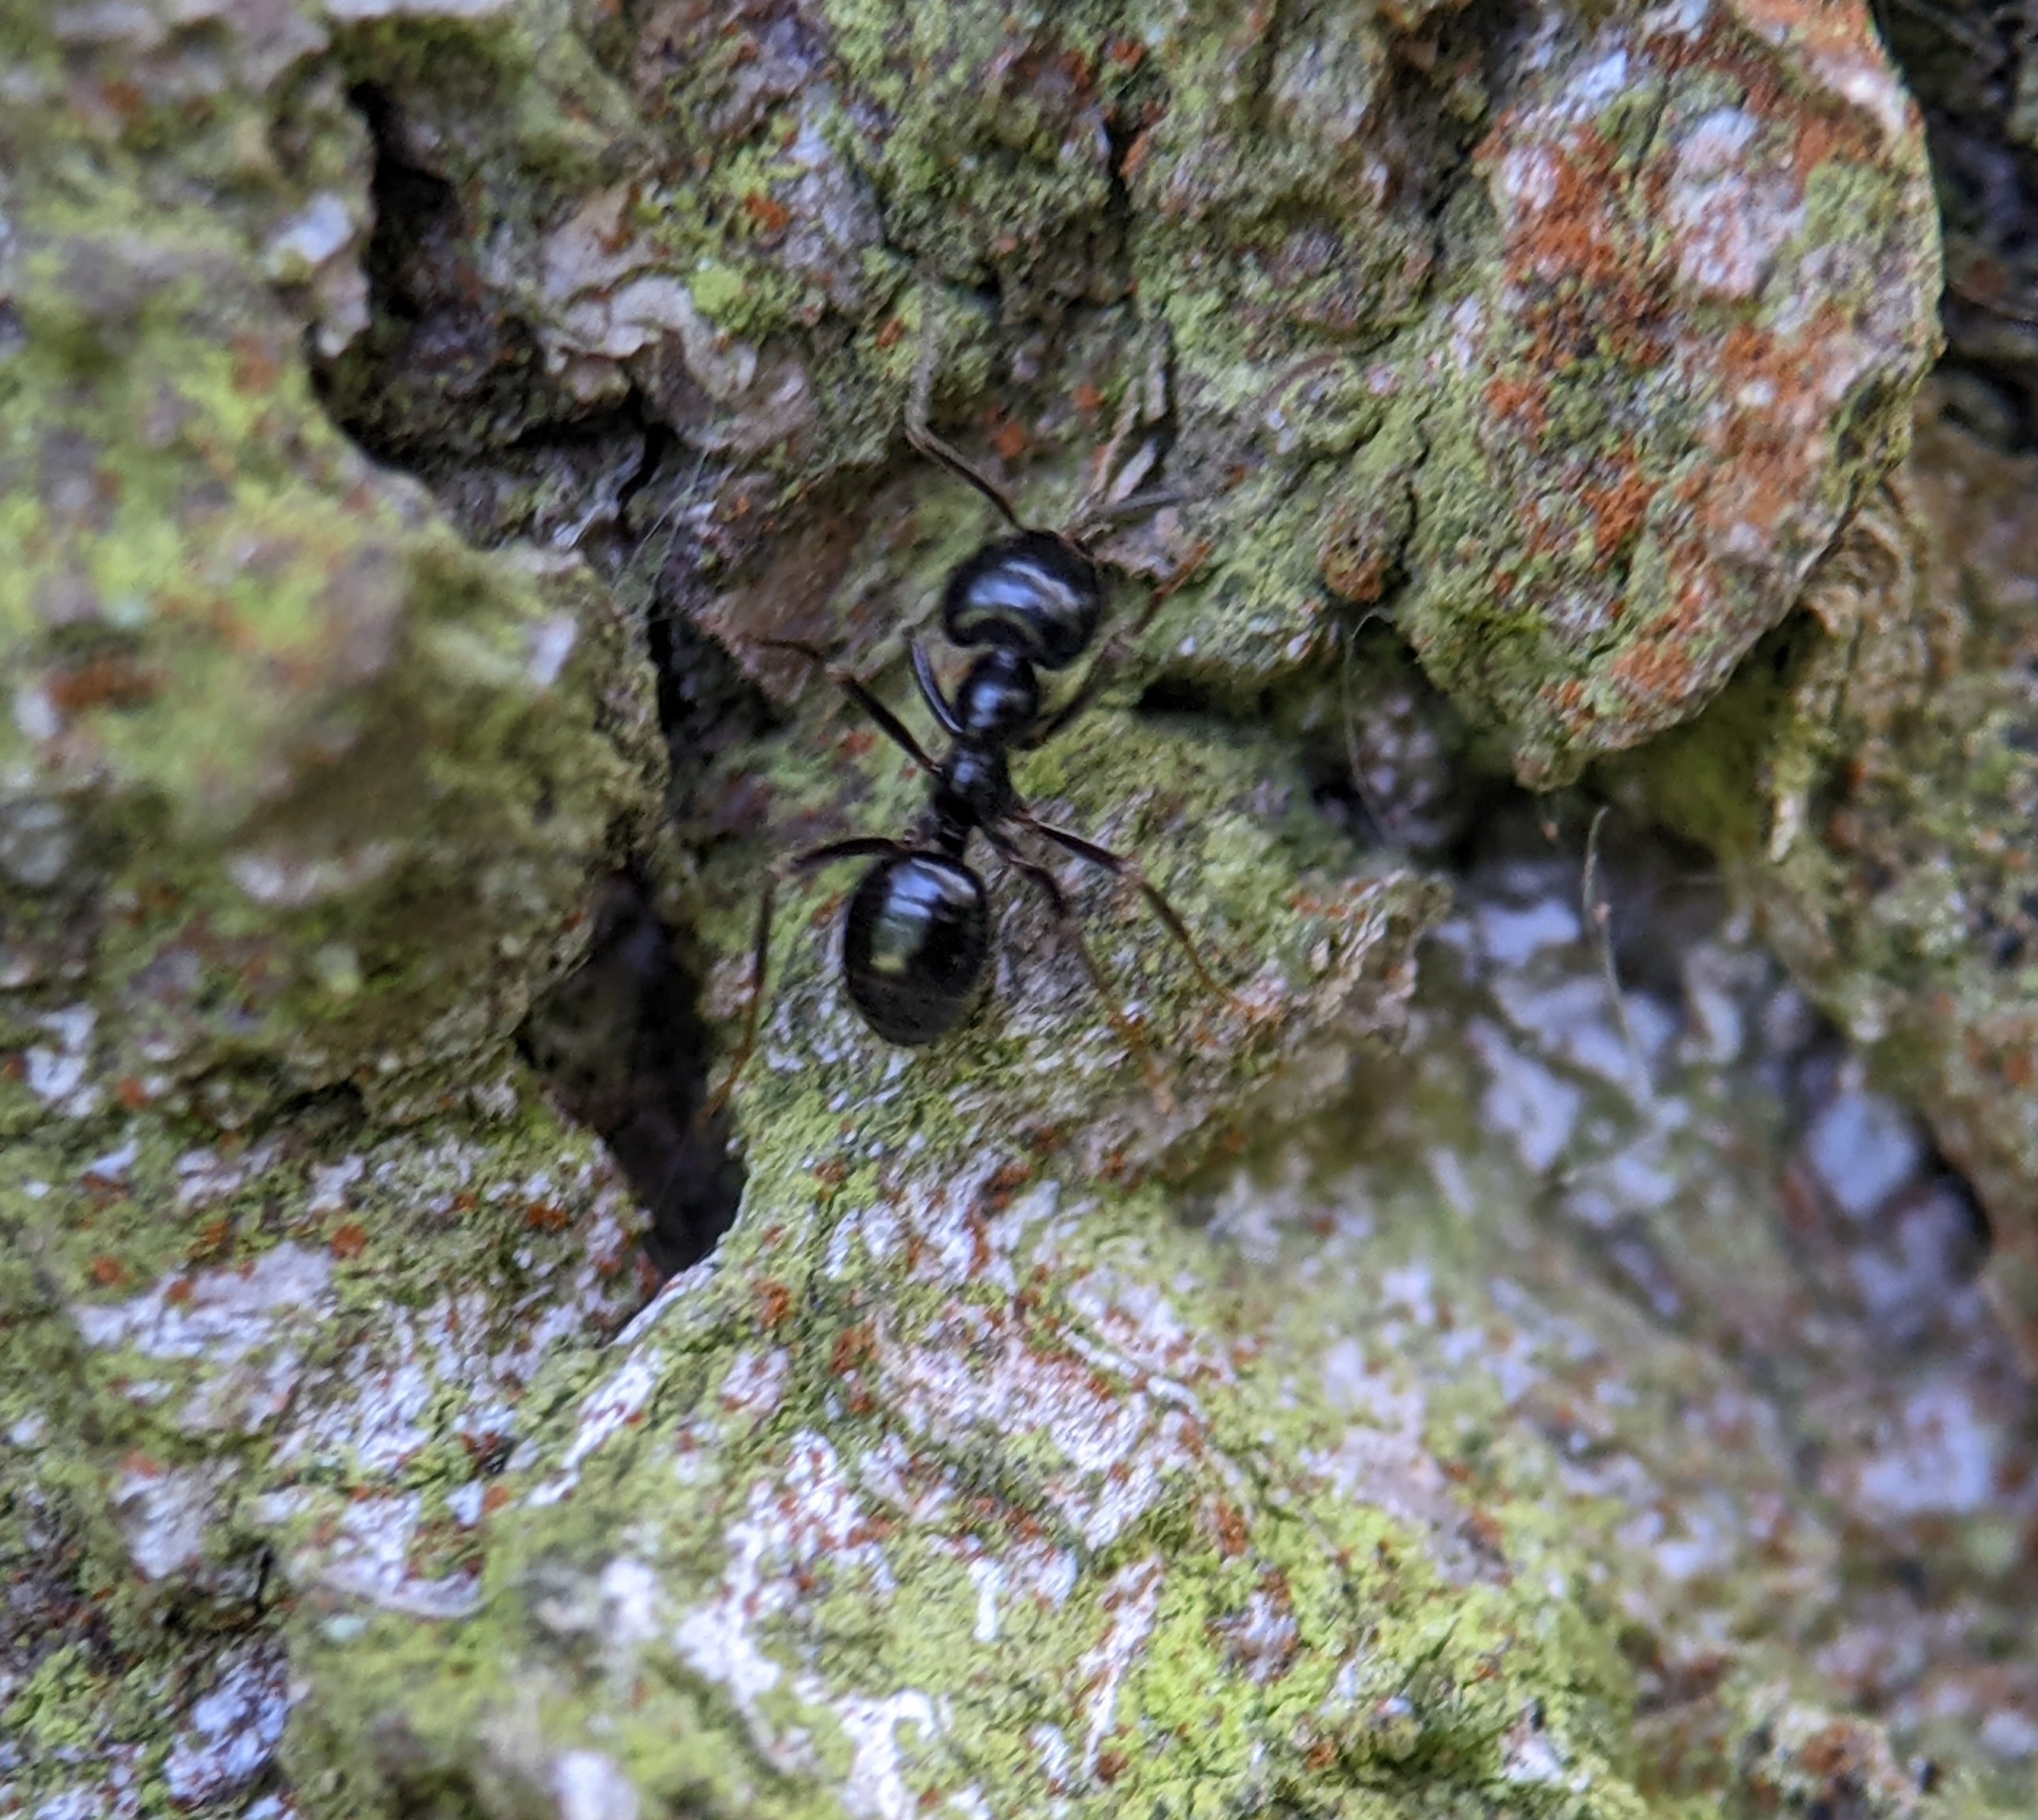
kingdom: Animalia
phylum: Arthropoda
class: Insecta
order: Hymenoptera
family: Formicidae
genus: Lasius
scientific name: Lasius fuliginosus
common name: Jet ant
